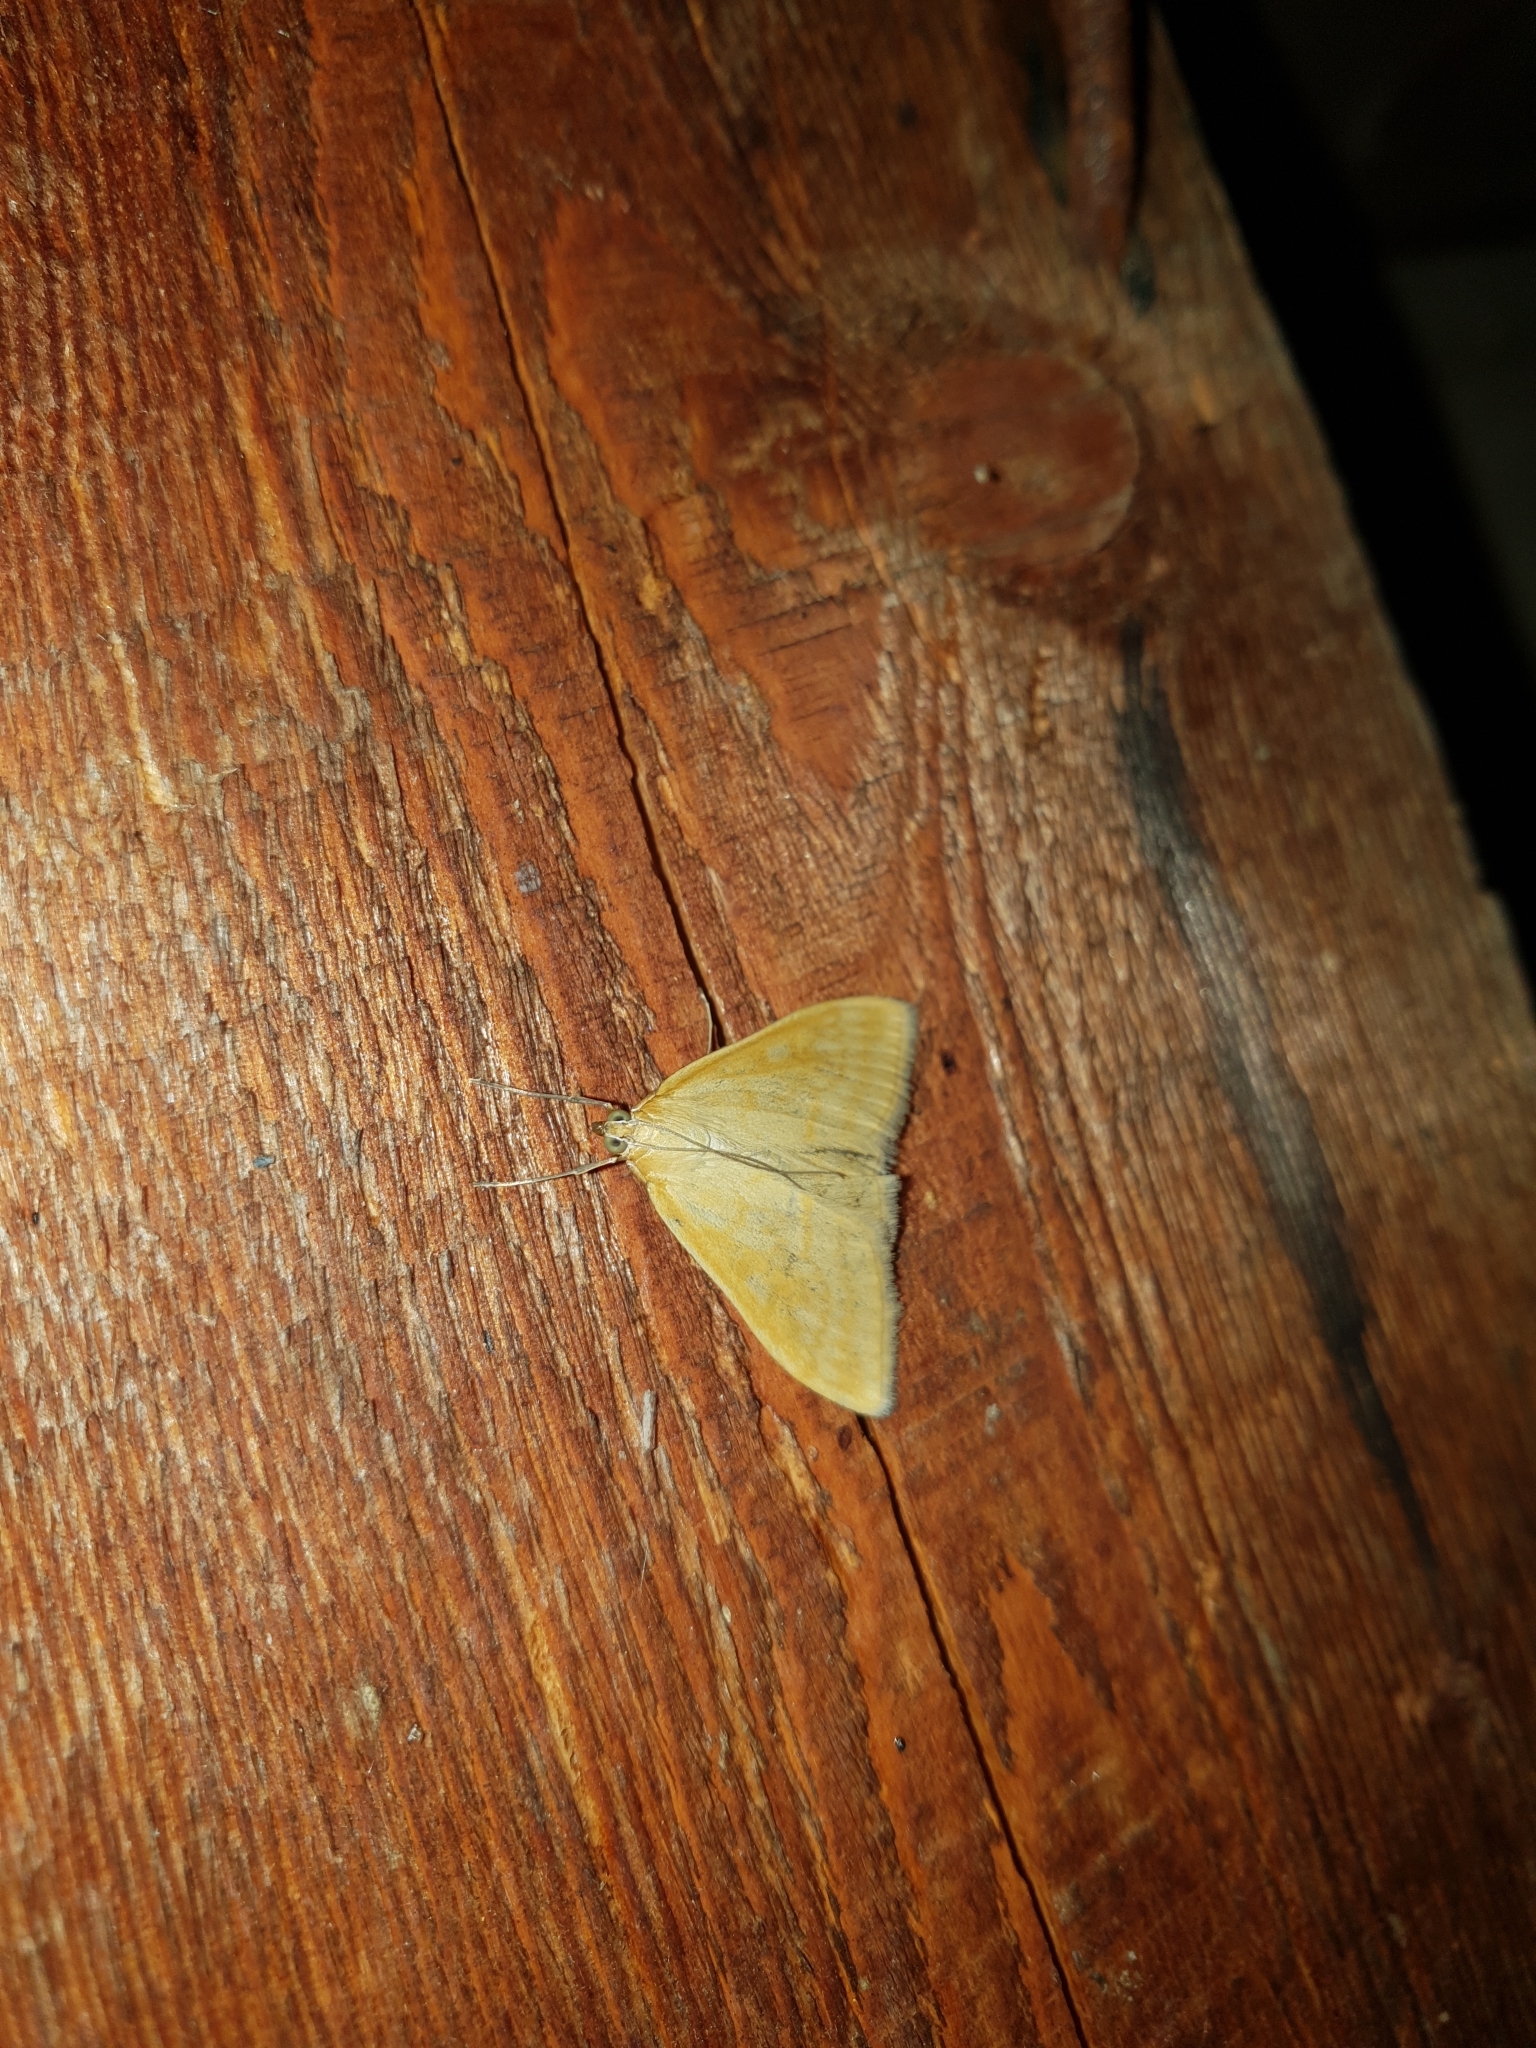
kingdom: Animalia
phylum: Arthropoda
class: Insecta
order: Lepidoptera
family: Crambidae
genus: Sitochroa
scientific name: Sitochroa verticalis
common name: Lesser pearl
